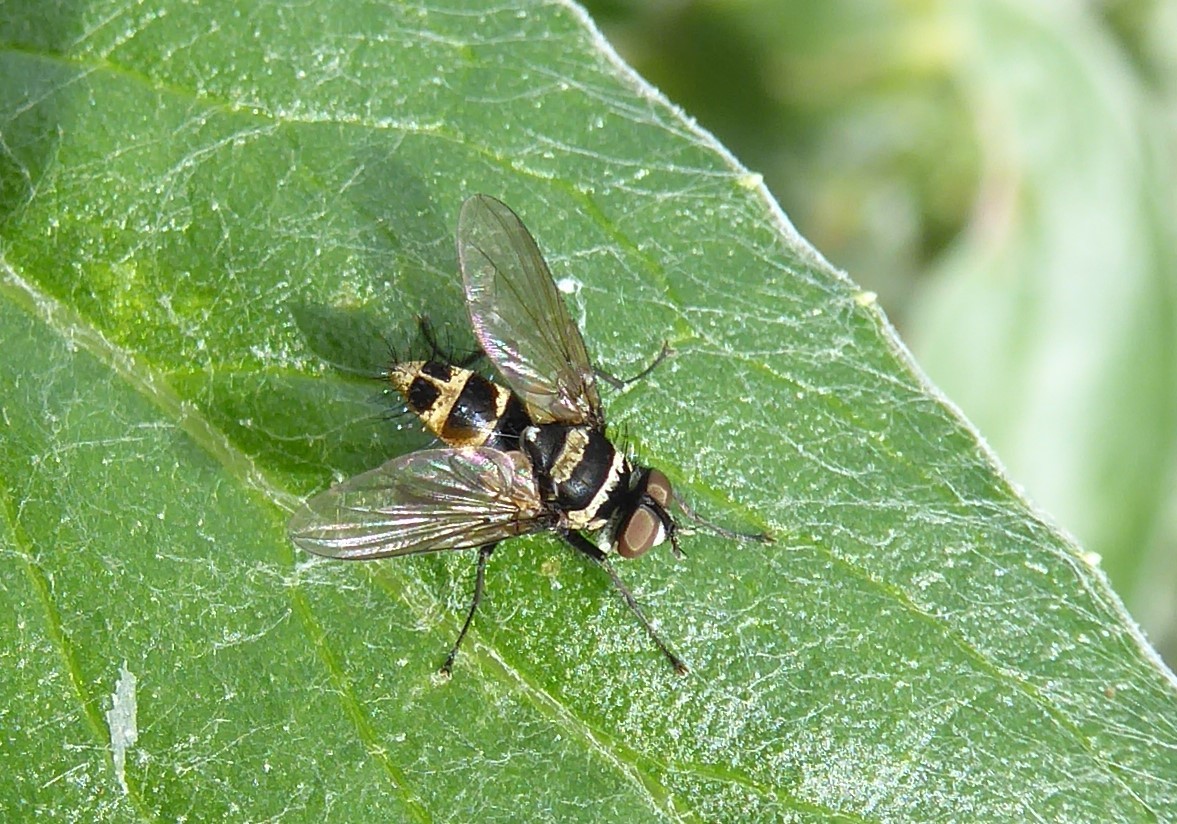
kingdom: Animalia
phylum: Arthropoda
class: Insecta
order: Diptera
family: Tachinidae
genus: Trigonospila
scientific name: Trigonospila brevifacies
